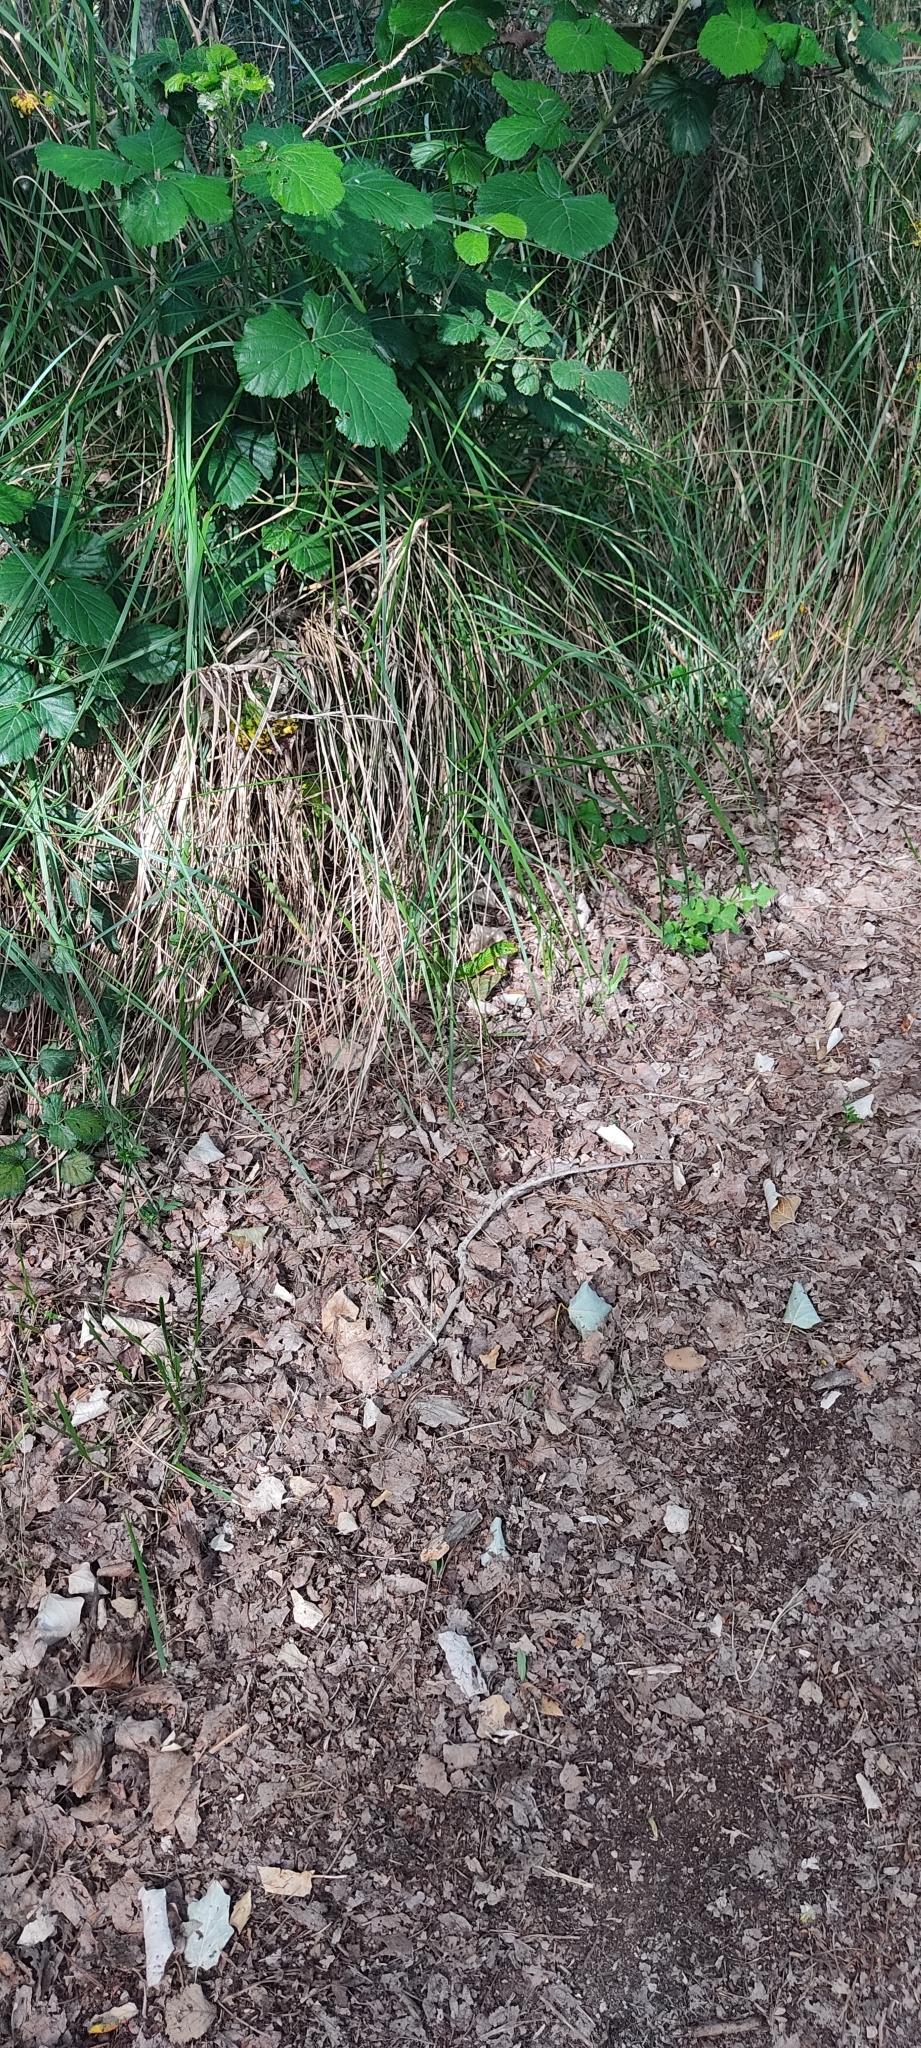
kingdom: Animalia
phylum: Chordata
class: Squamata
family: Lacertidae
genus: Lacerta
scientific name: Lacerta bilineata
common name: Western green lizard
